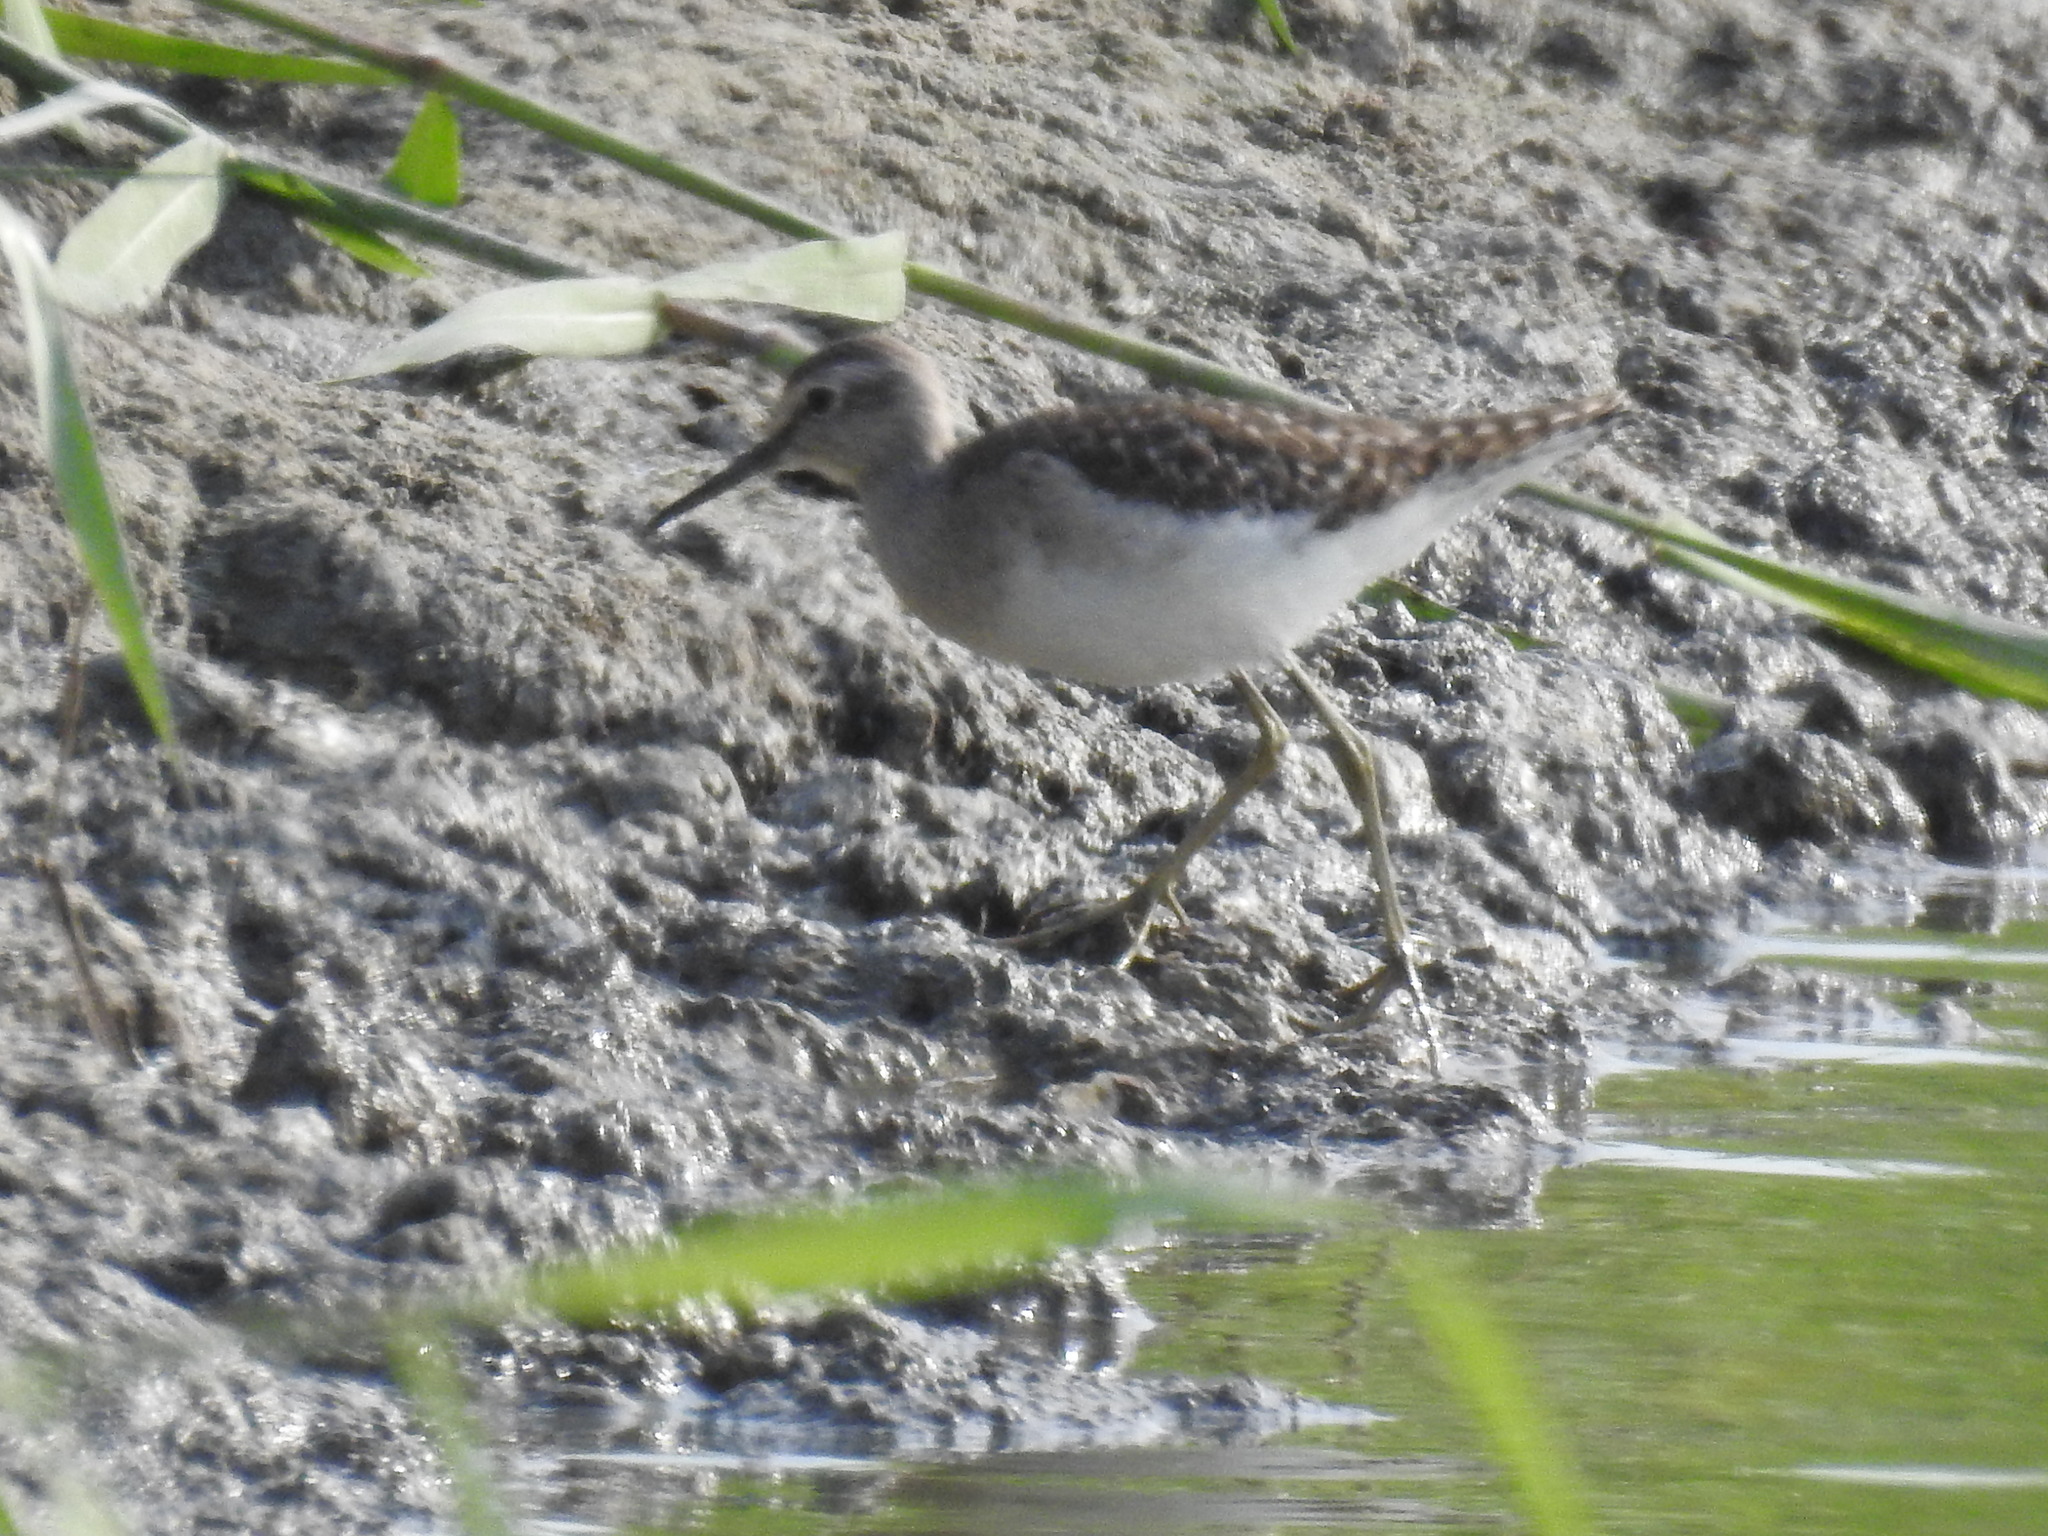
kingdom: Animalia
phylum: Chordata
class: Aves
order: Charadriiformes
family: Scolopacidae
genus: Tringa
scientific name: Tringa glareola
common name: Wood sandpiper
